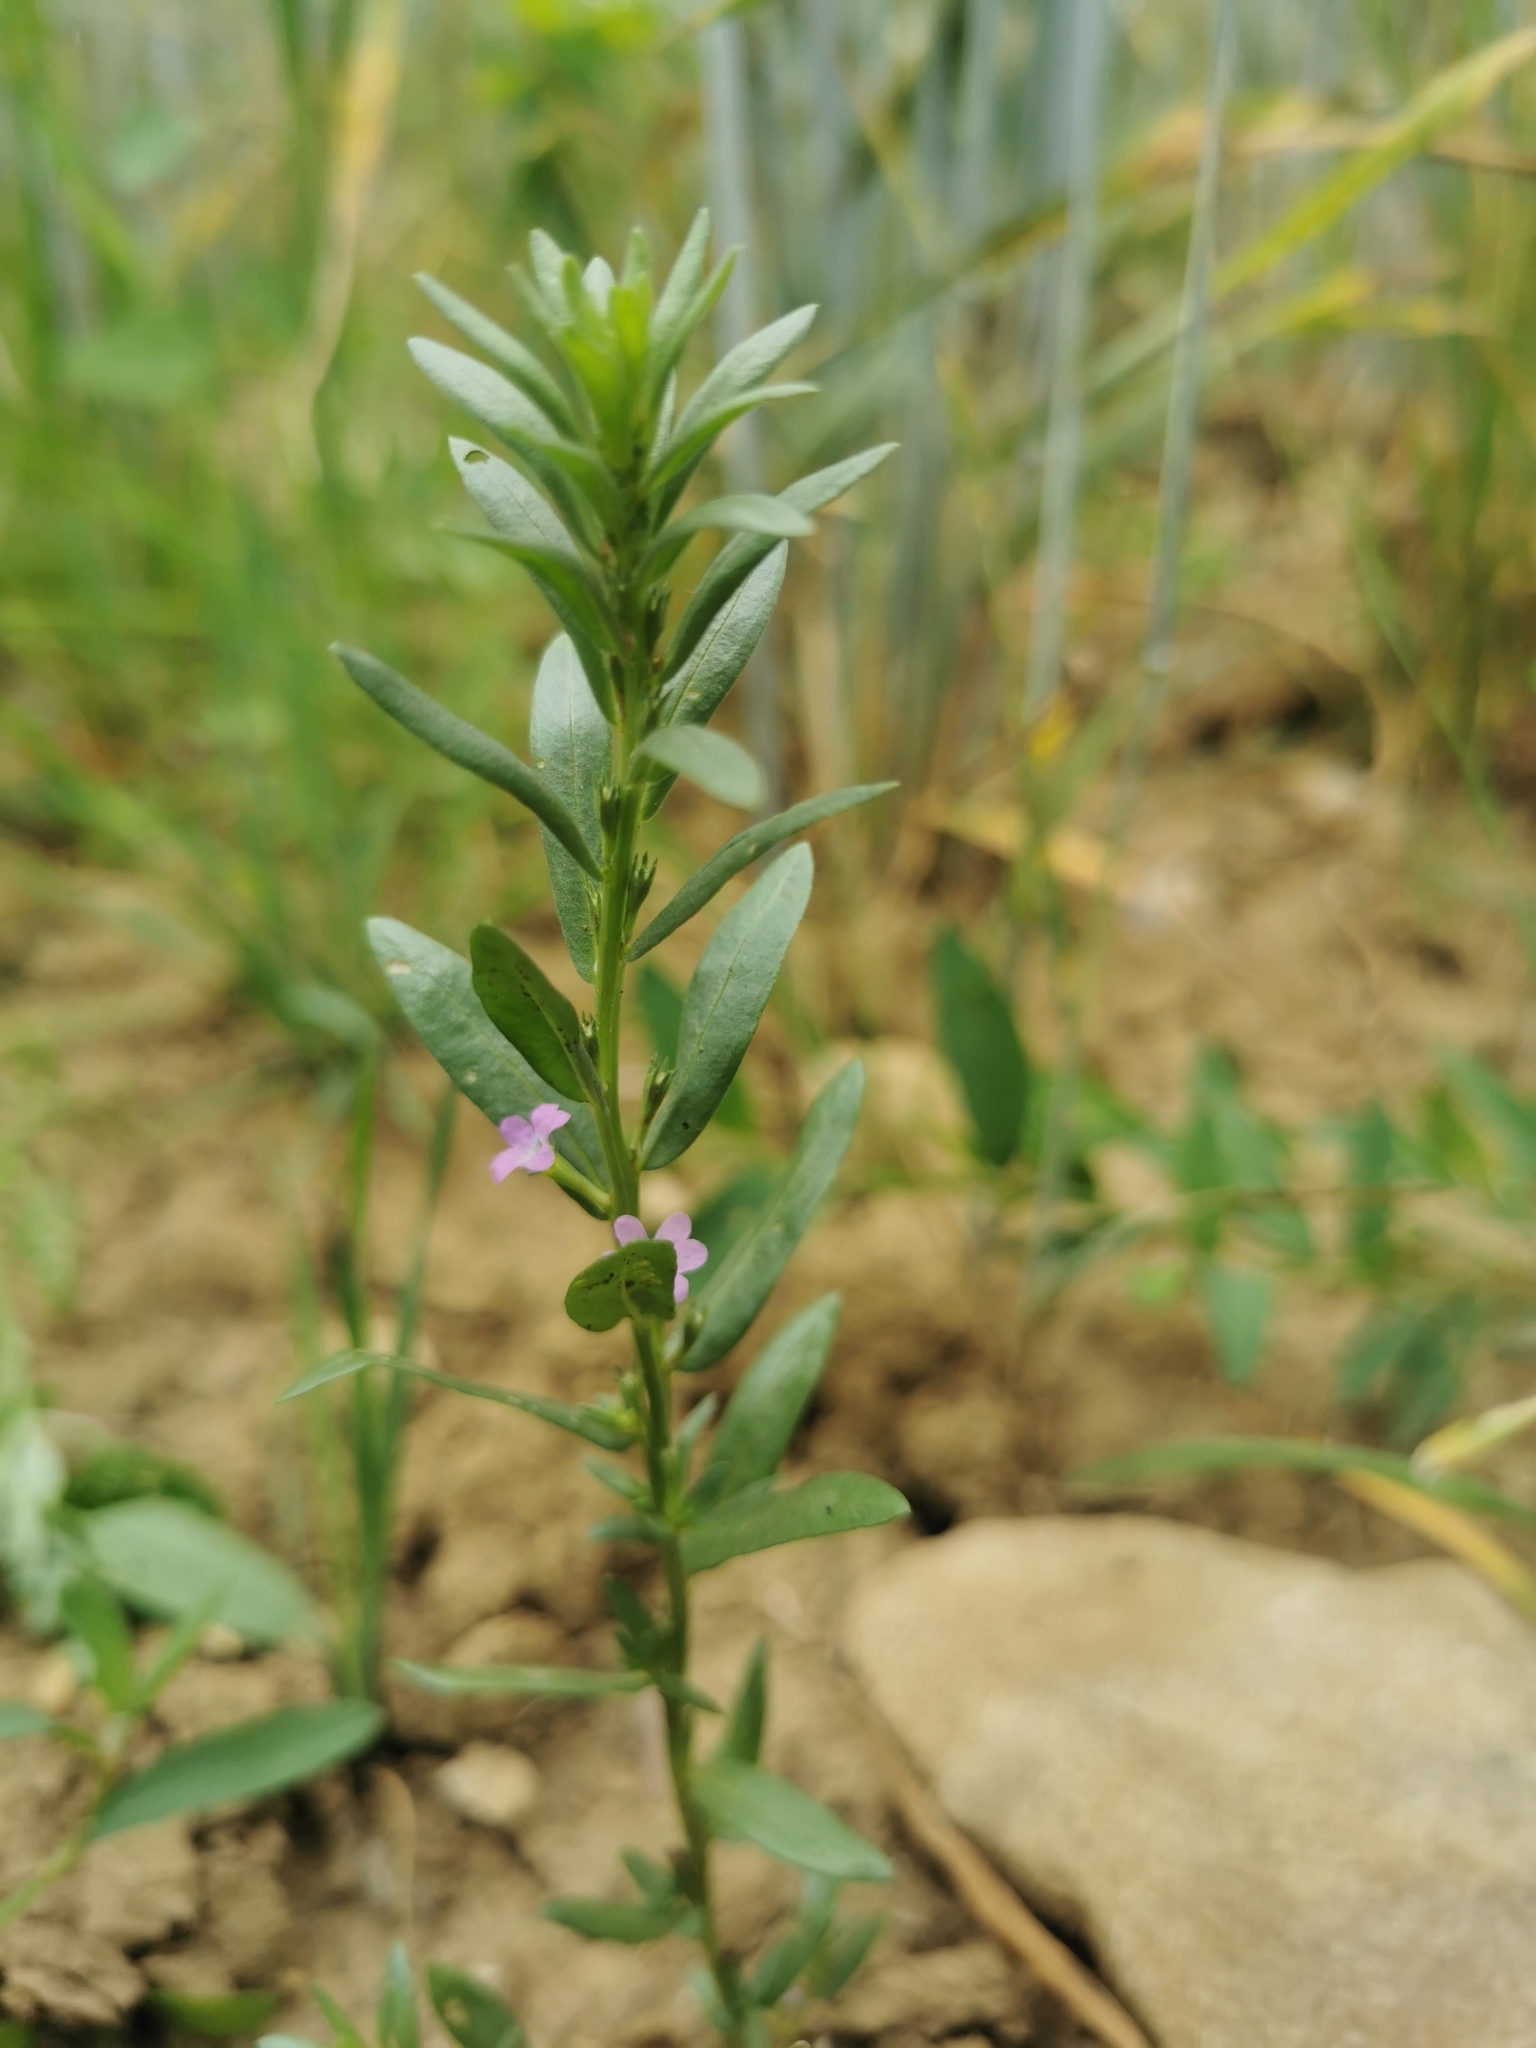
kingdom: Plantae
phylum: Tracheophyta
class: Magnoliopsida
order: Myrtales
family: Lythraceae
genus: Lythrum
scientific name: Lythrum hyssopifolia
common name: Grass-poly
